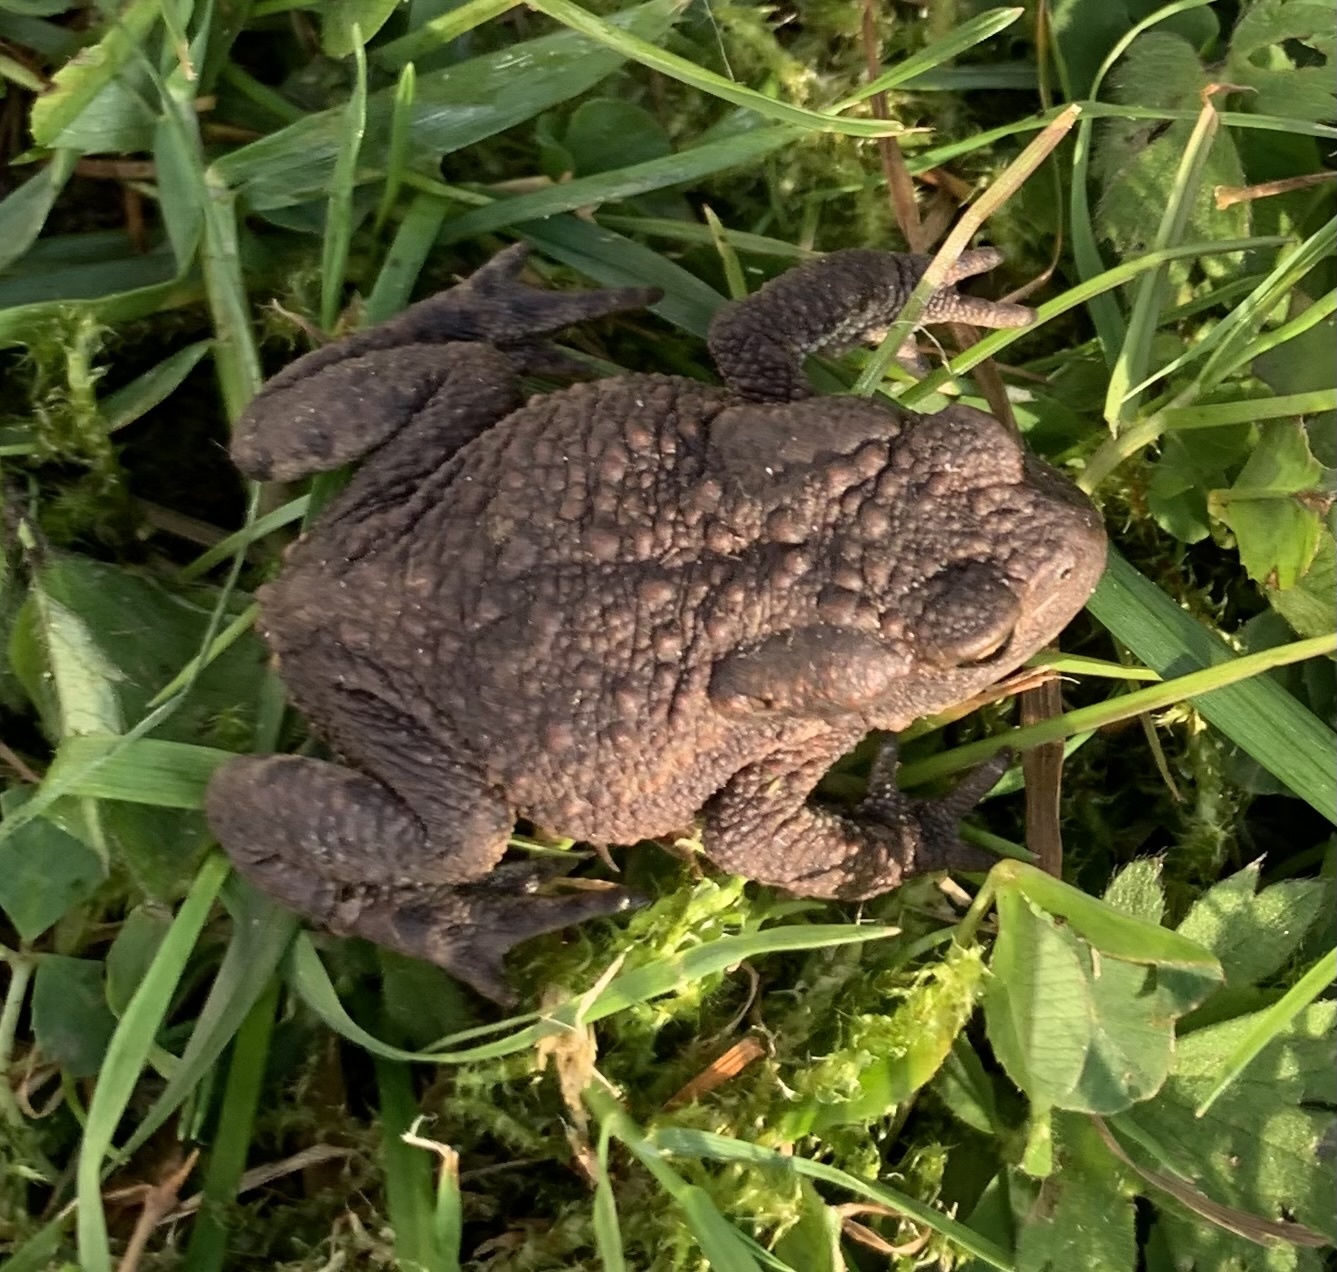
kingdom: Animalia
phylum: Chordata
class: Amphibia
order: Anura
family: Bufonidae
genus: Bufo
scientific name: Bufo bufo
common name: Common toad
